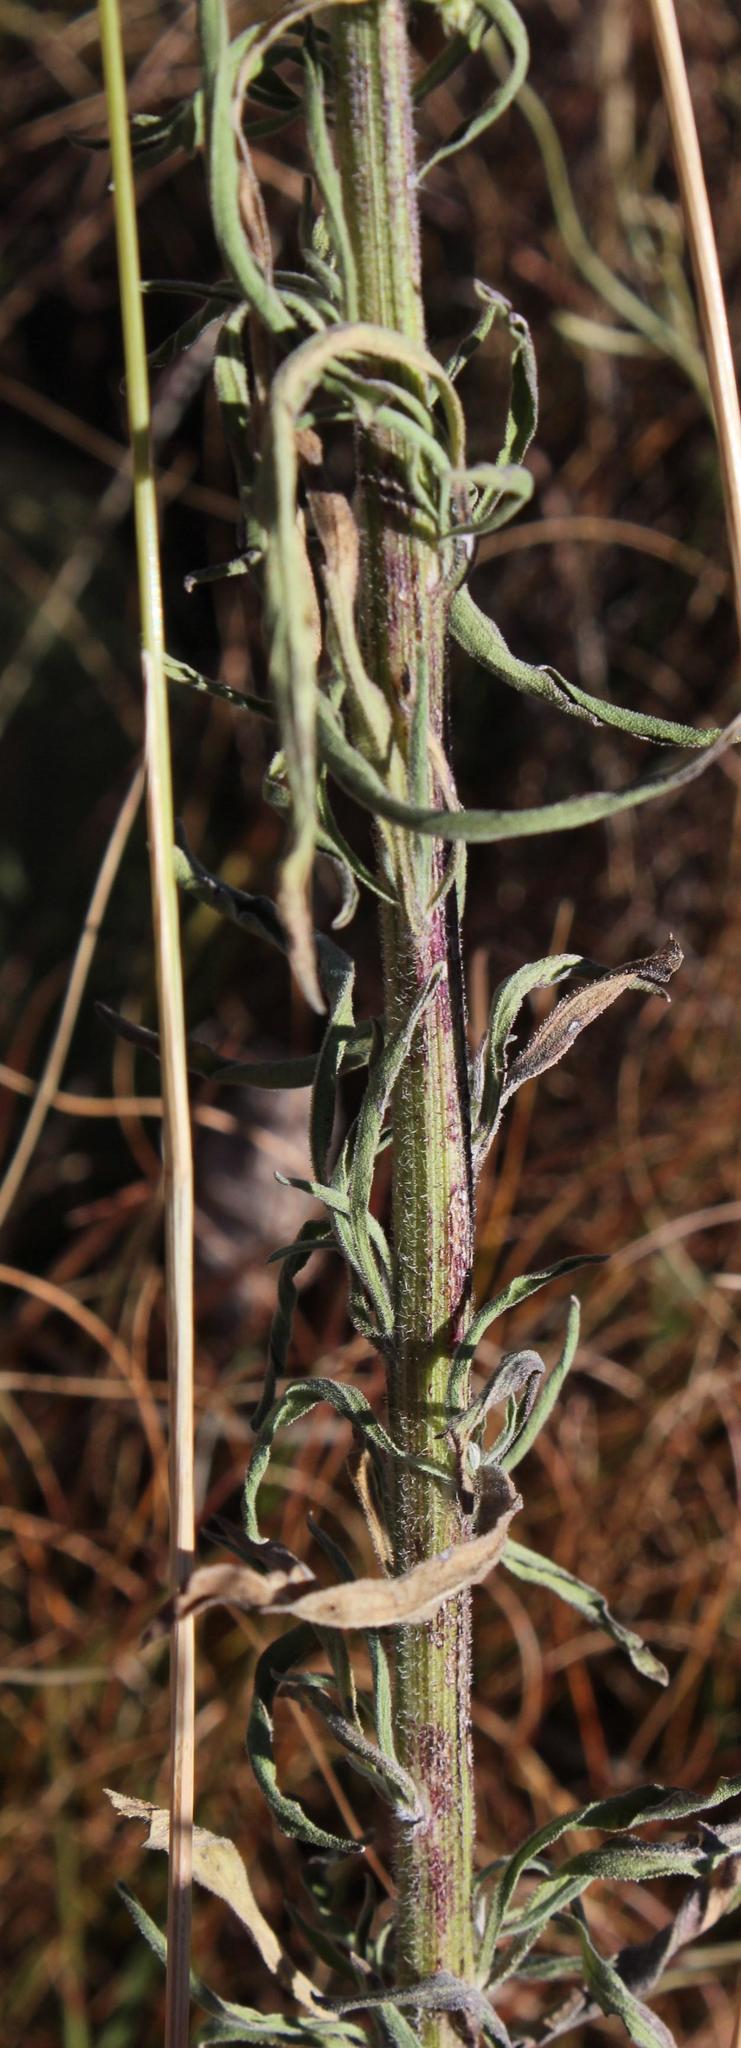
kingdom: Plantae
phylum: Tracheophyta
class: Magnoliopsida
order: Asterales
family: Asteraceae
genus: Erigeron
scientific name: Erigeron sumatrensis
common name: Daisy
